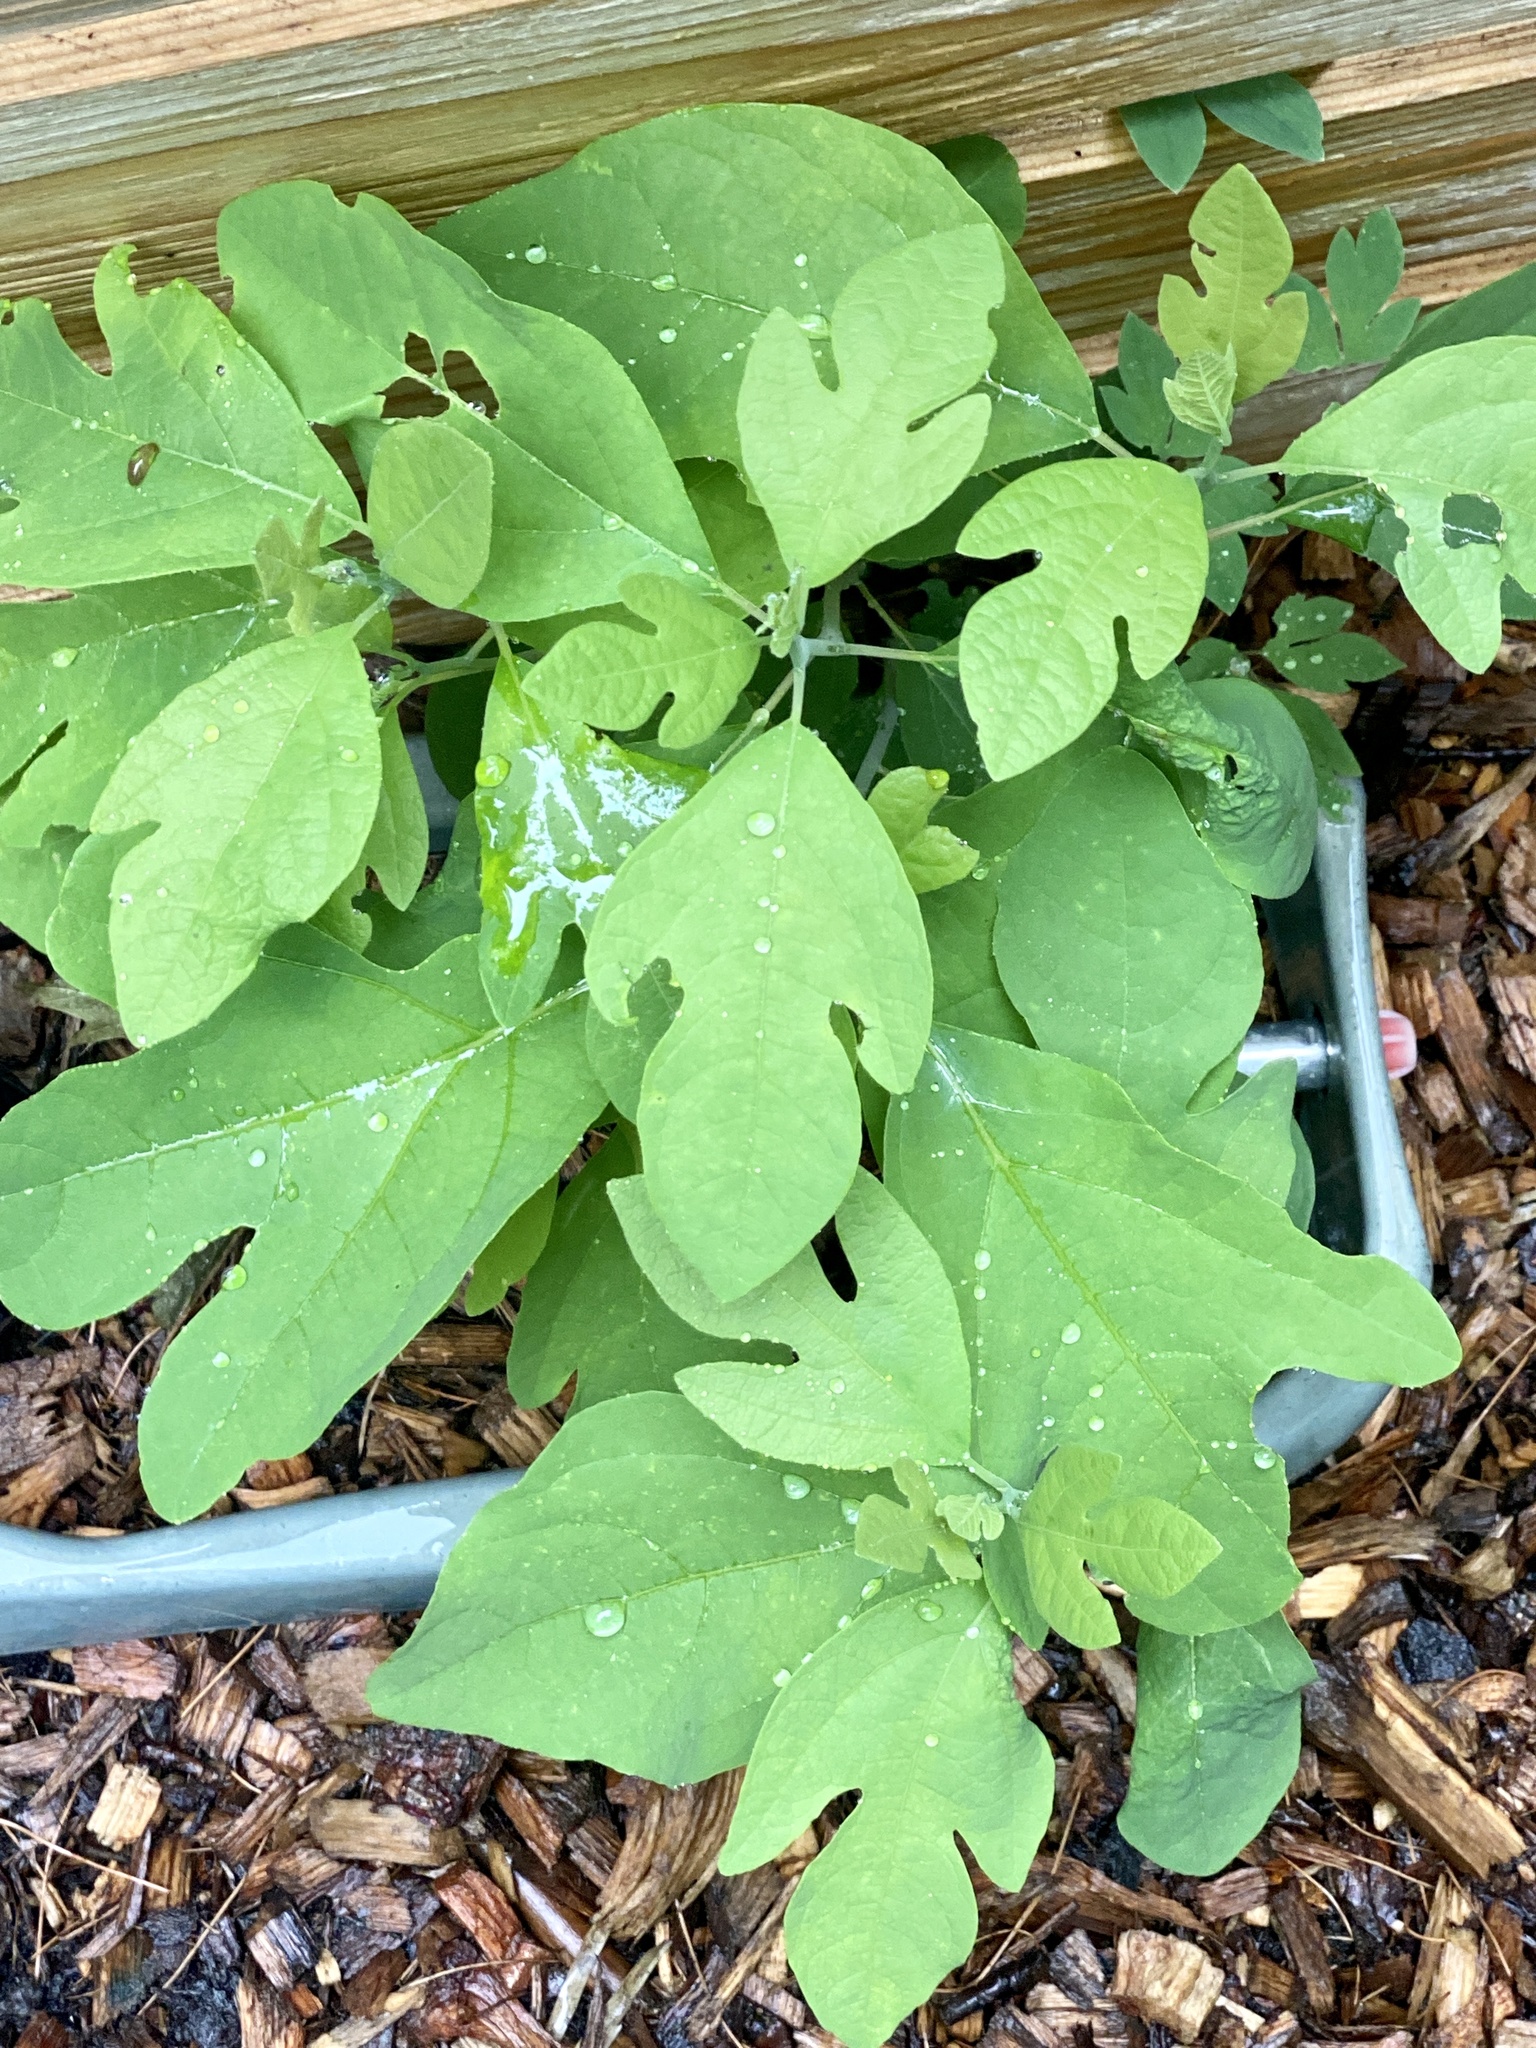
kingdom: Plantae
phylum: Tracheophyta
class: Magnoliopsida
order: Laurales
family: Lauraceae
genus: Sassafras
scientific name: Sassafras albidum
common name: Sassafras
